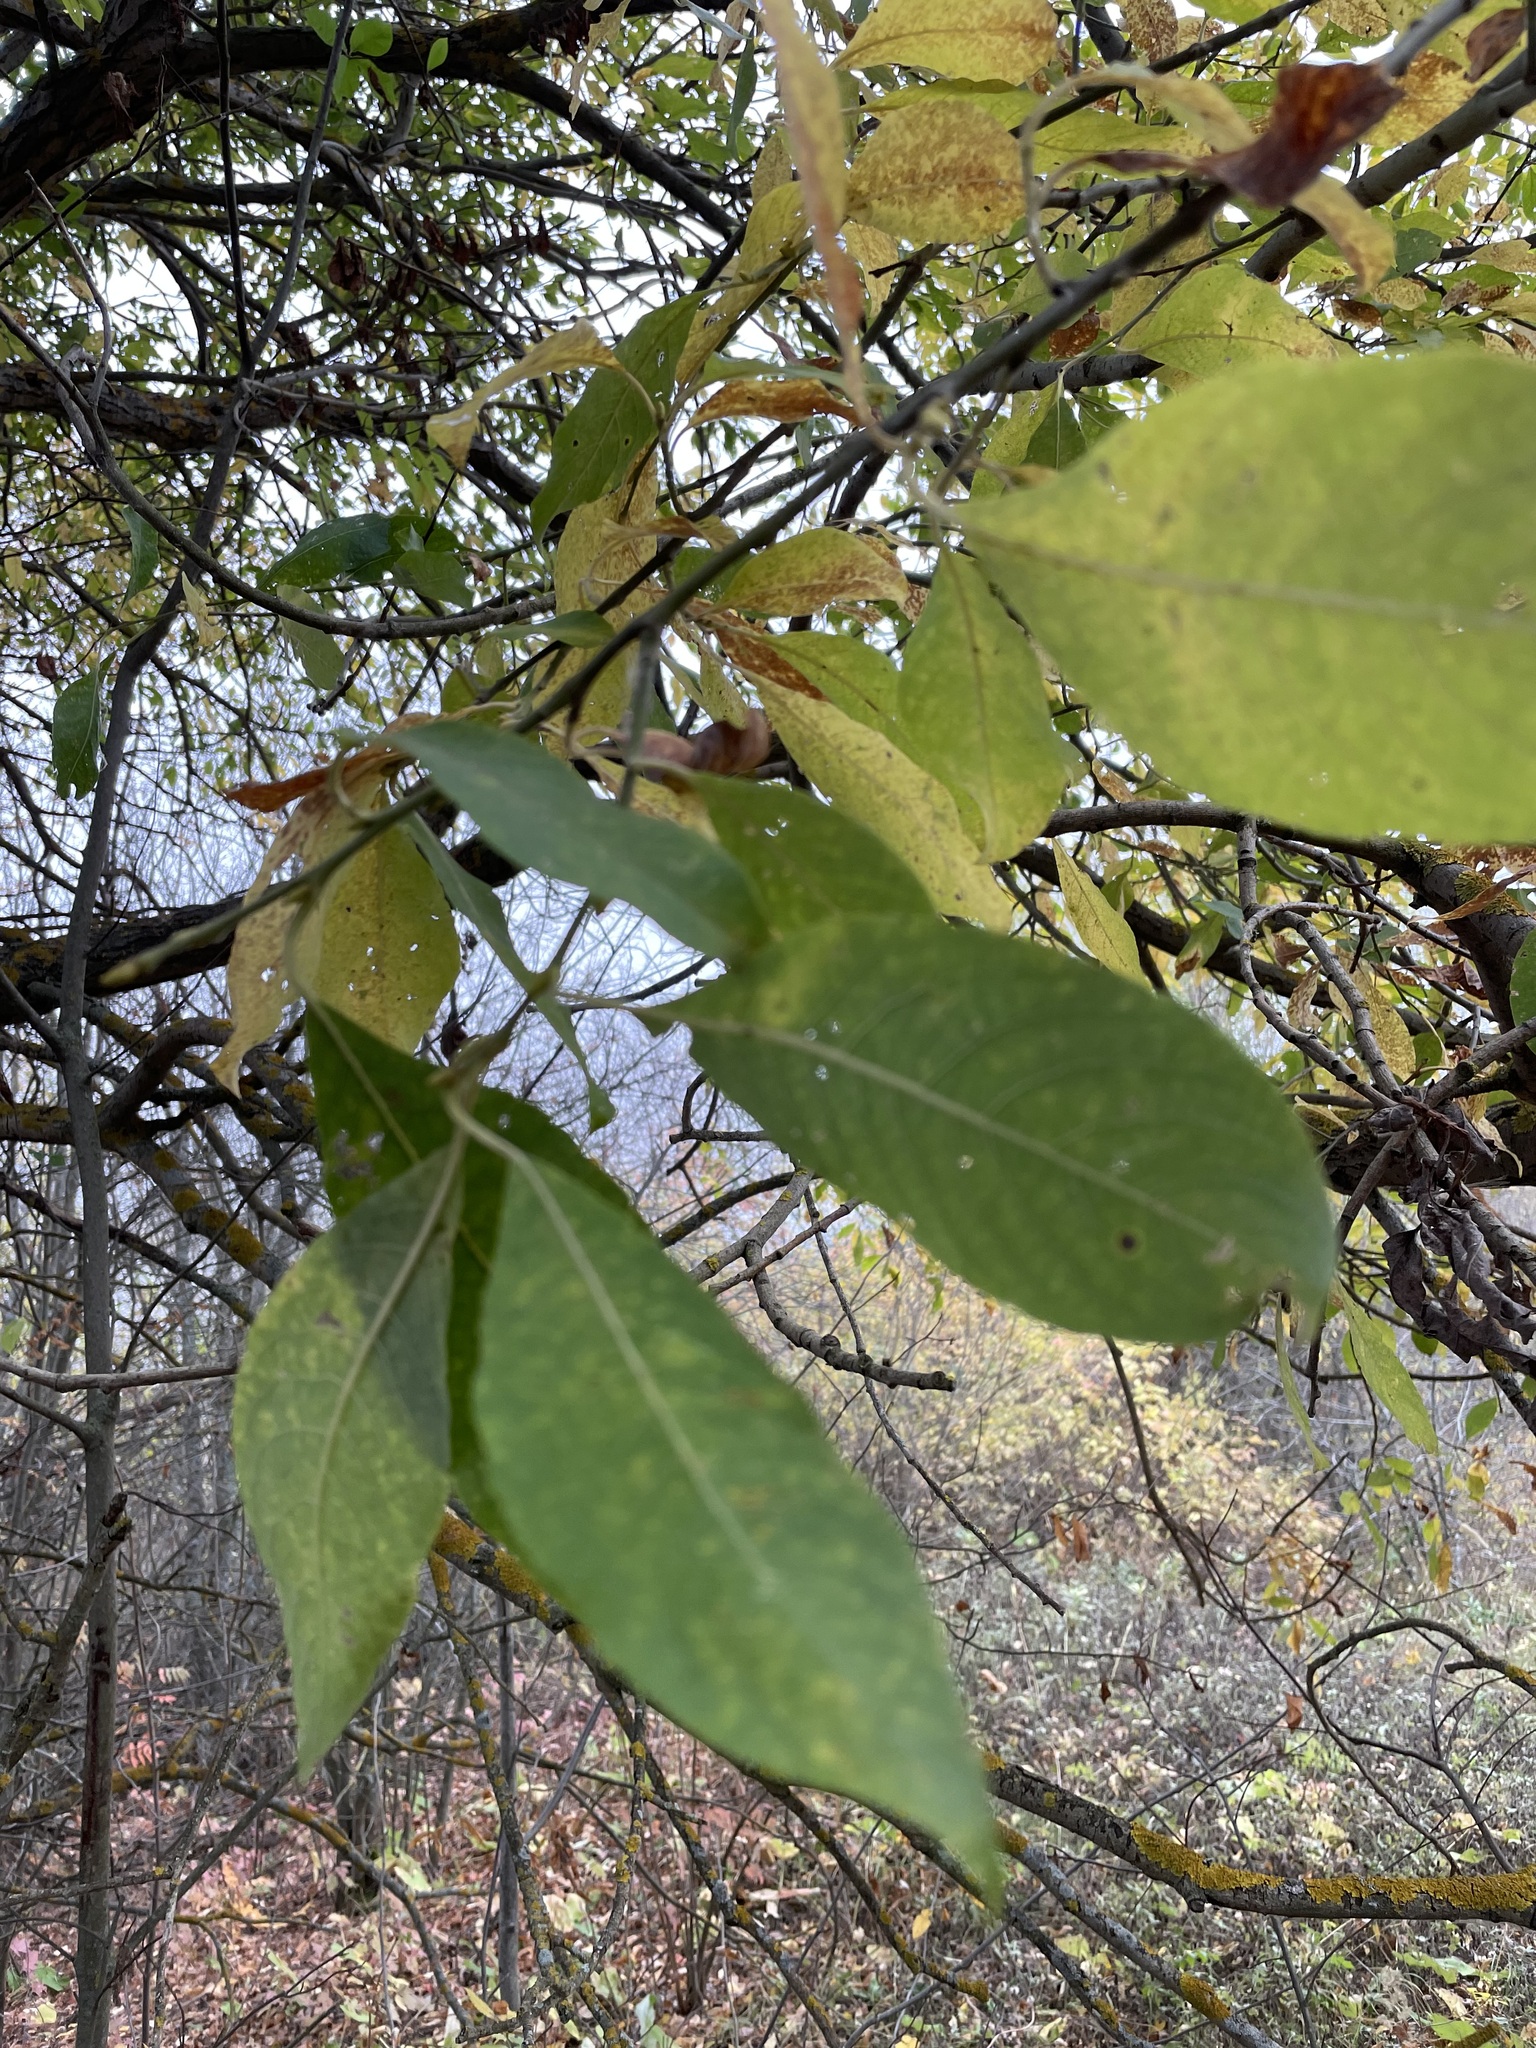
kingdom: Plantae
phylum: Tracheophyta
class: Magnoliopsida
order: Malpighiales
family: Salicaceae
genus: Salix
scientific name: Salix caprea
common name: Goat willow
